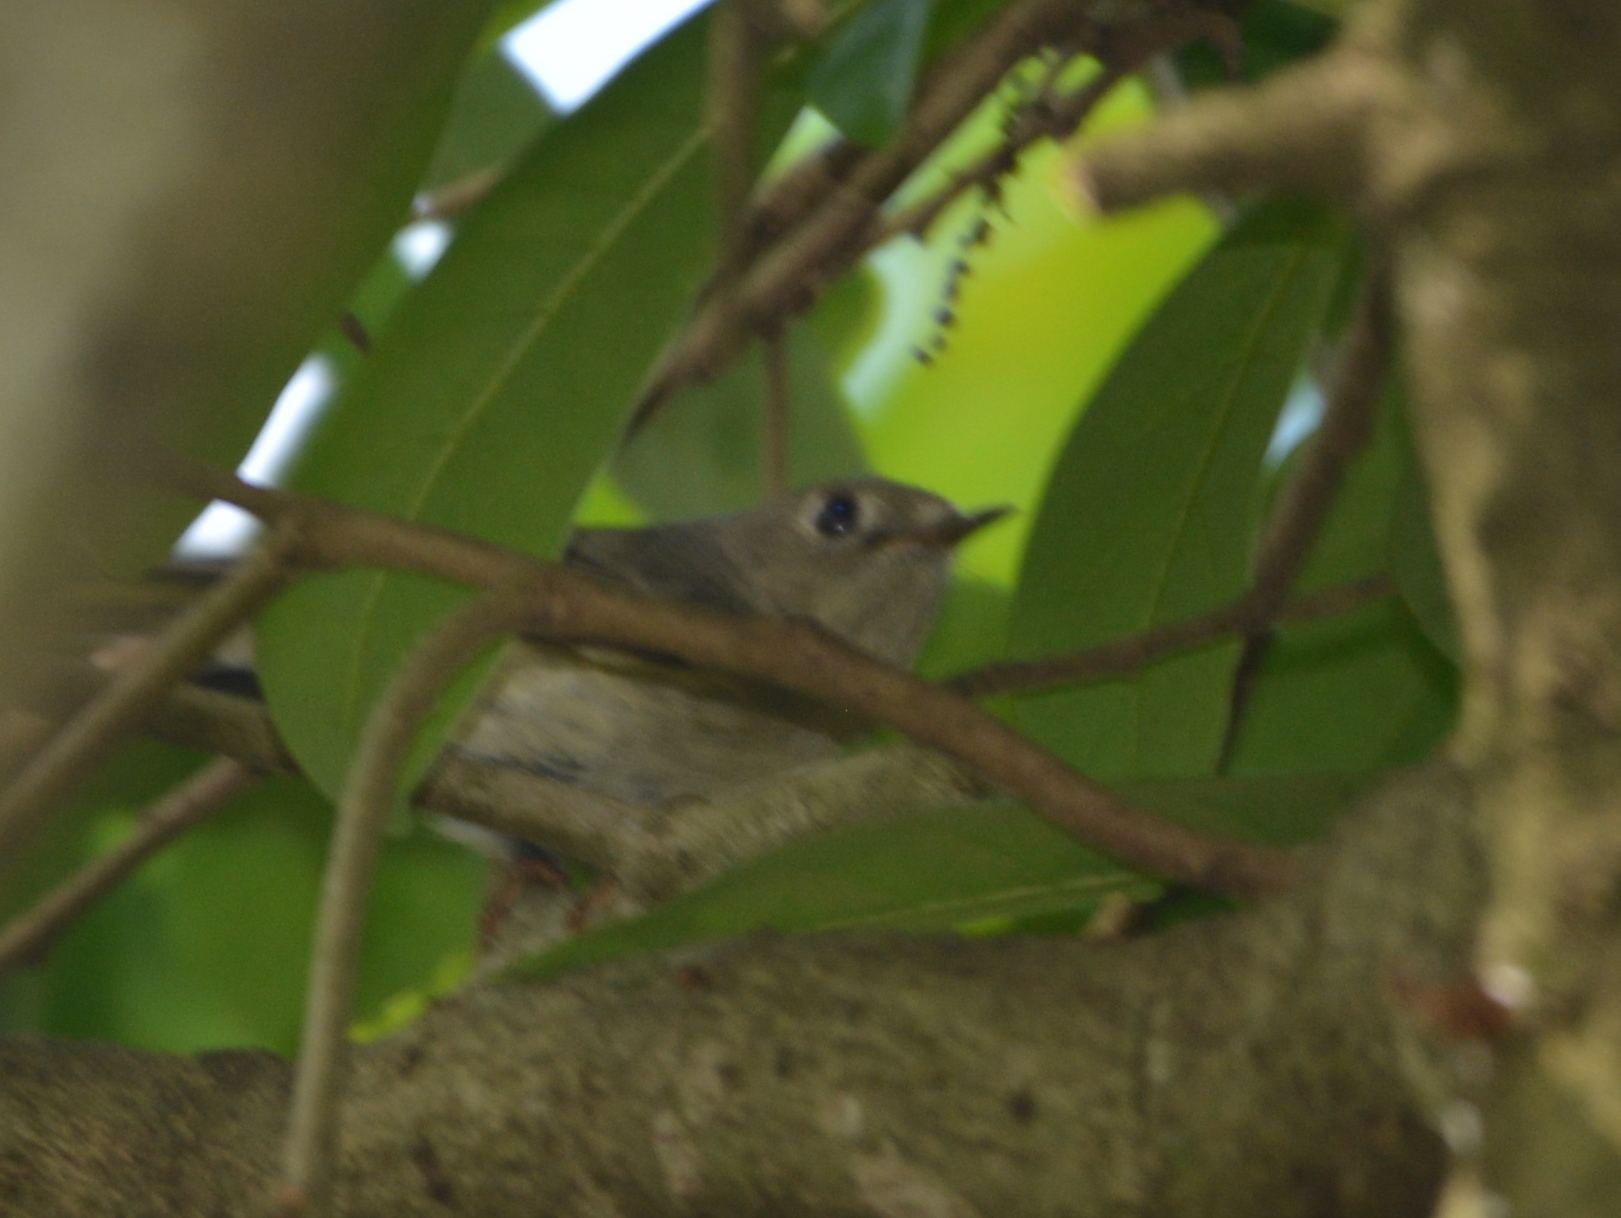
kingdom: Animalia
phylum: Chordata
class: Aves
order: Passeriformes
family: Regulidae
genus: Regulus
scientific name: Regulus calendula
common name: Ruby-crowned kinglet
